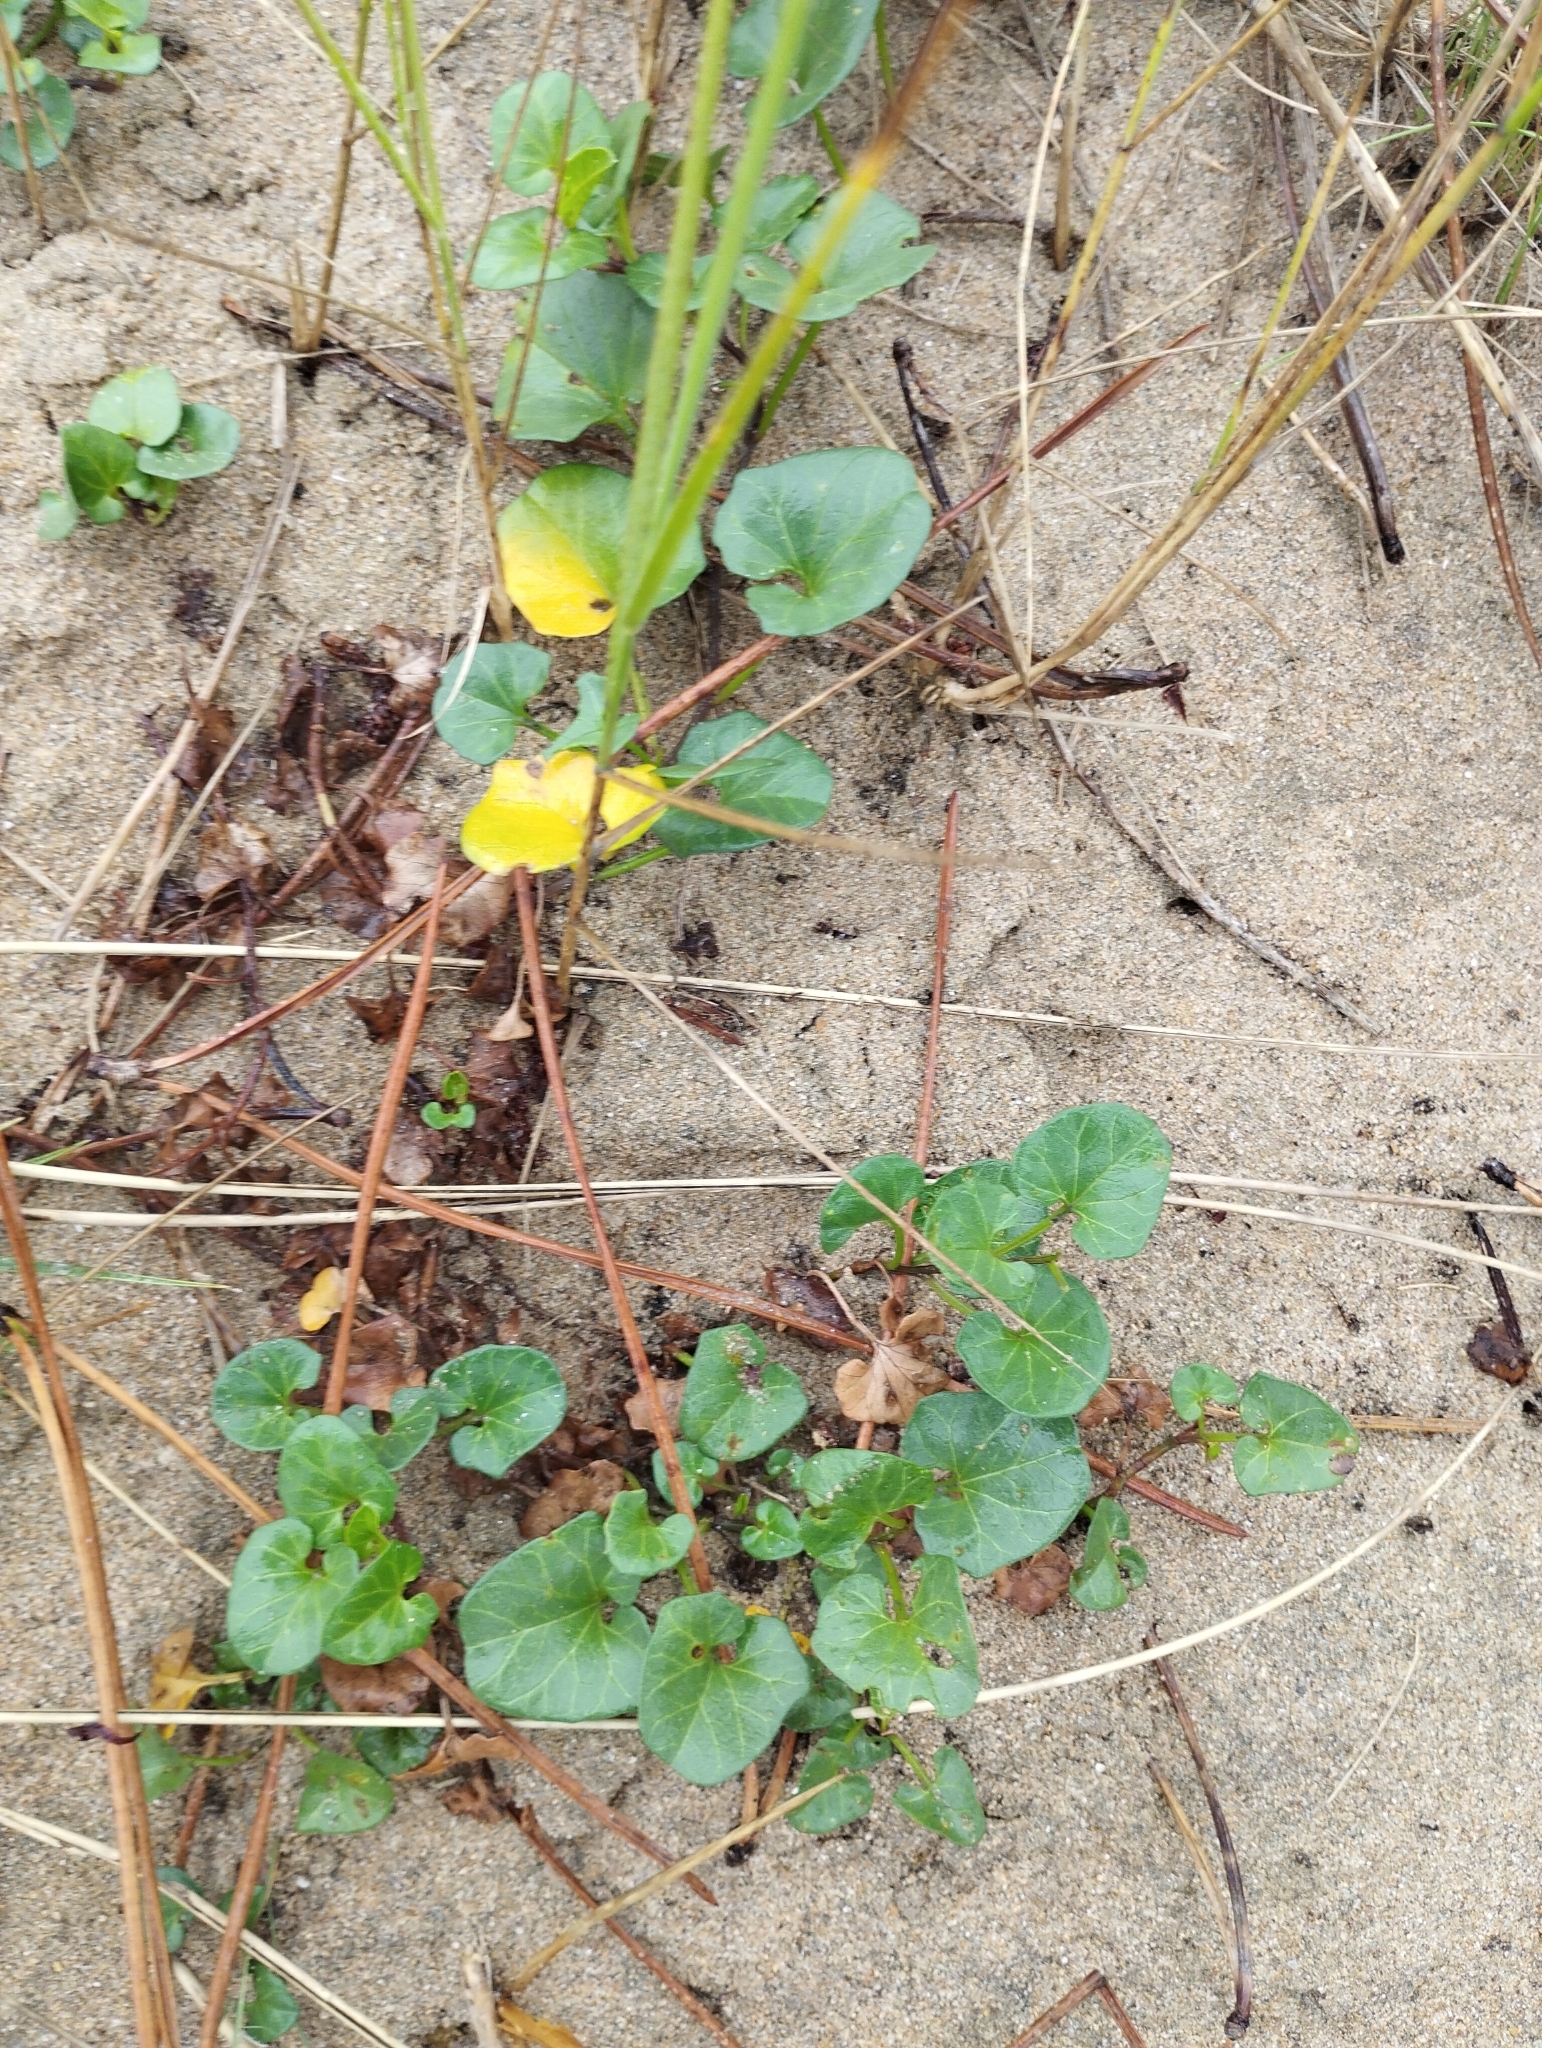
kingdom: Plantae
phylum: Tracheophyta
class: Magnoliopsida
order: Solanales
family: Convolvulaceae
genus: Calystegia
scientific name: Calystegia soldanella
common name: Sea bindweed
